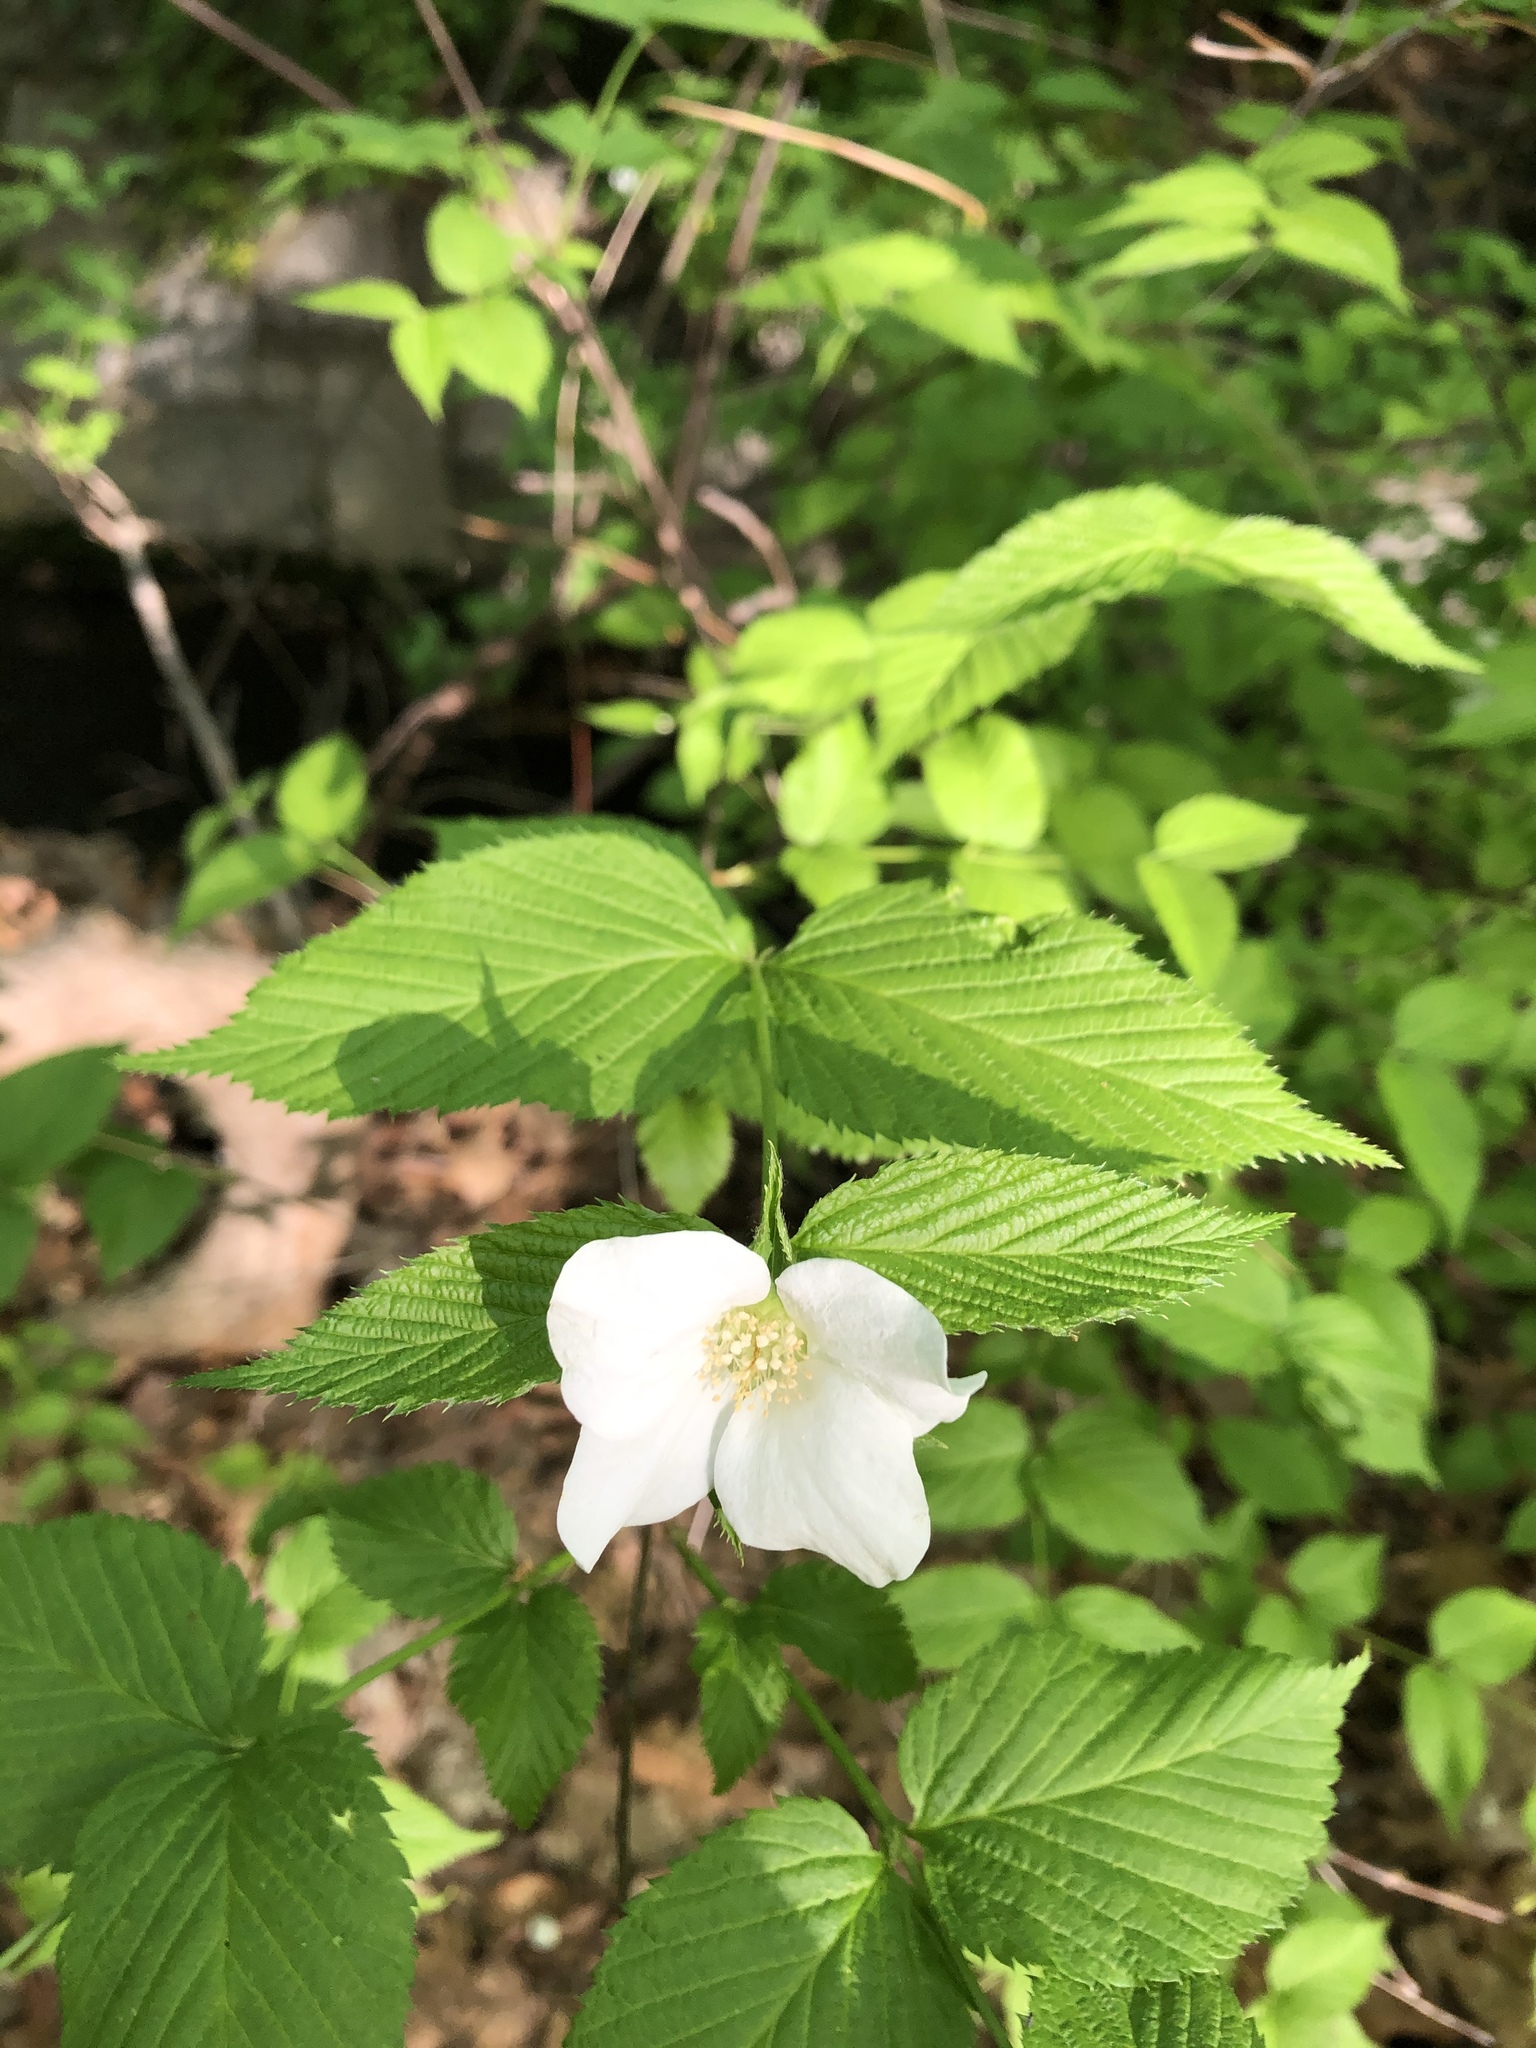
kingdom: Plantae
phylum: Tracheophyta
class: Magnoliopsida
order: Rosales
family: Rosaceae
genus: Rhodotypos
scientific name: Rhodotypos scandens
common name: Jetbead
